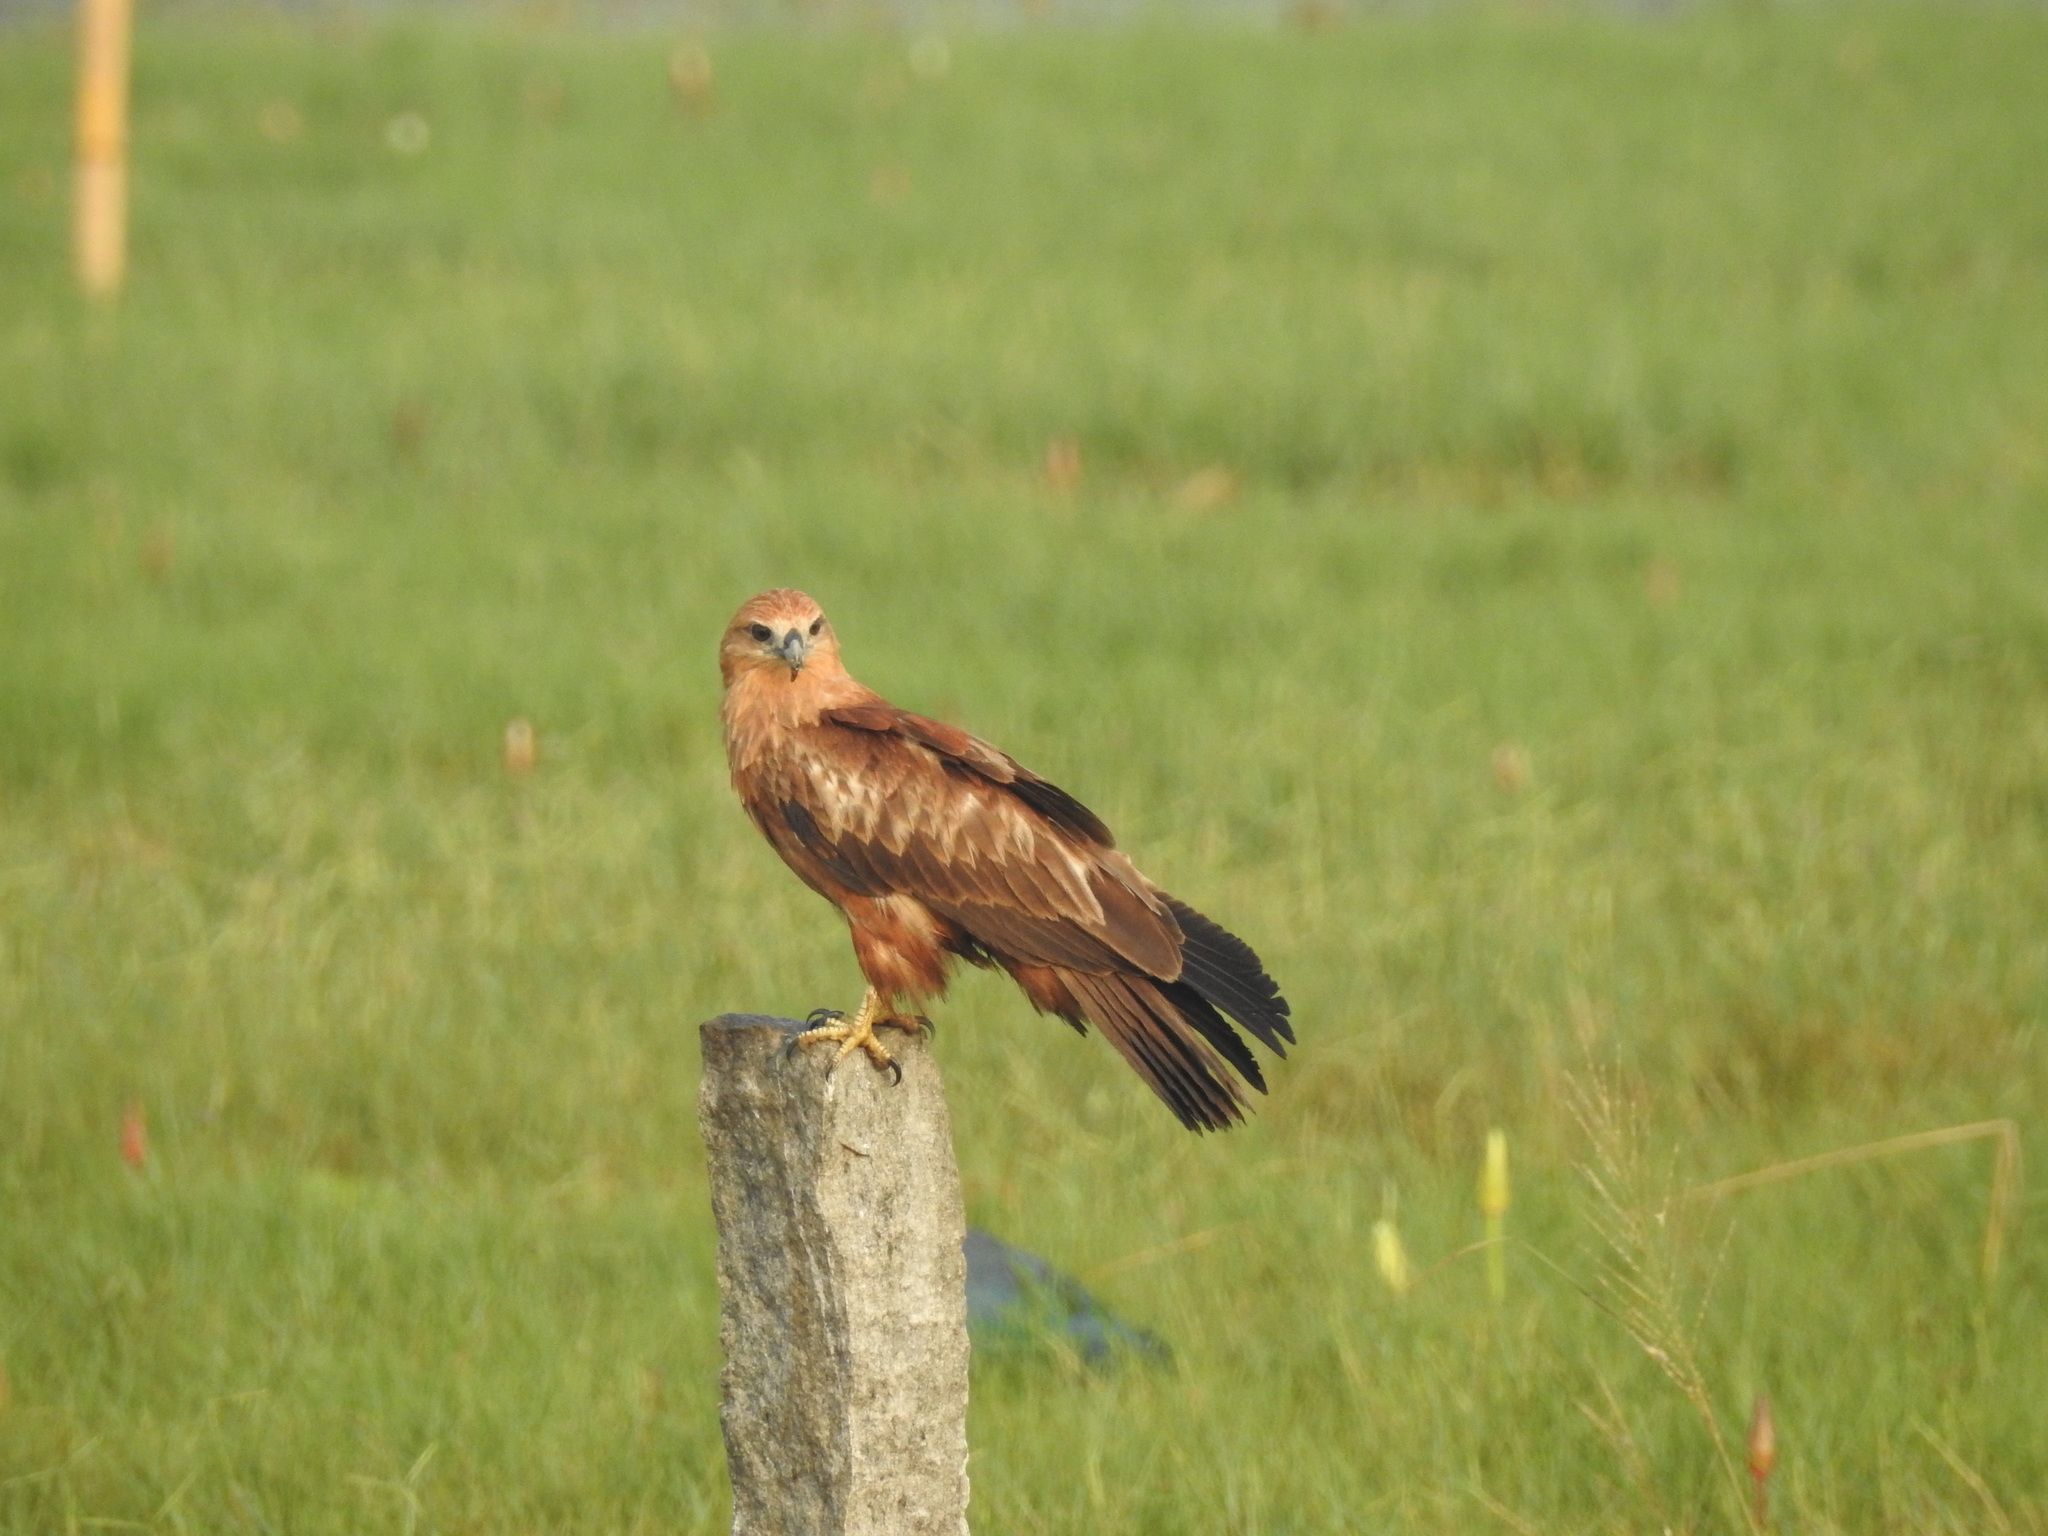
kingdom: Animalia
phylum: Chordata
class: Aves
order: Accipitriformes
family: Accipitridae
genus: Haliastur
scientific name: Haliastur indus
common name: Brahminy kite
